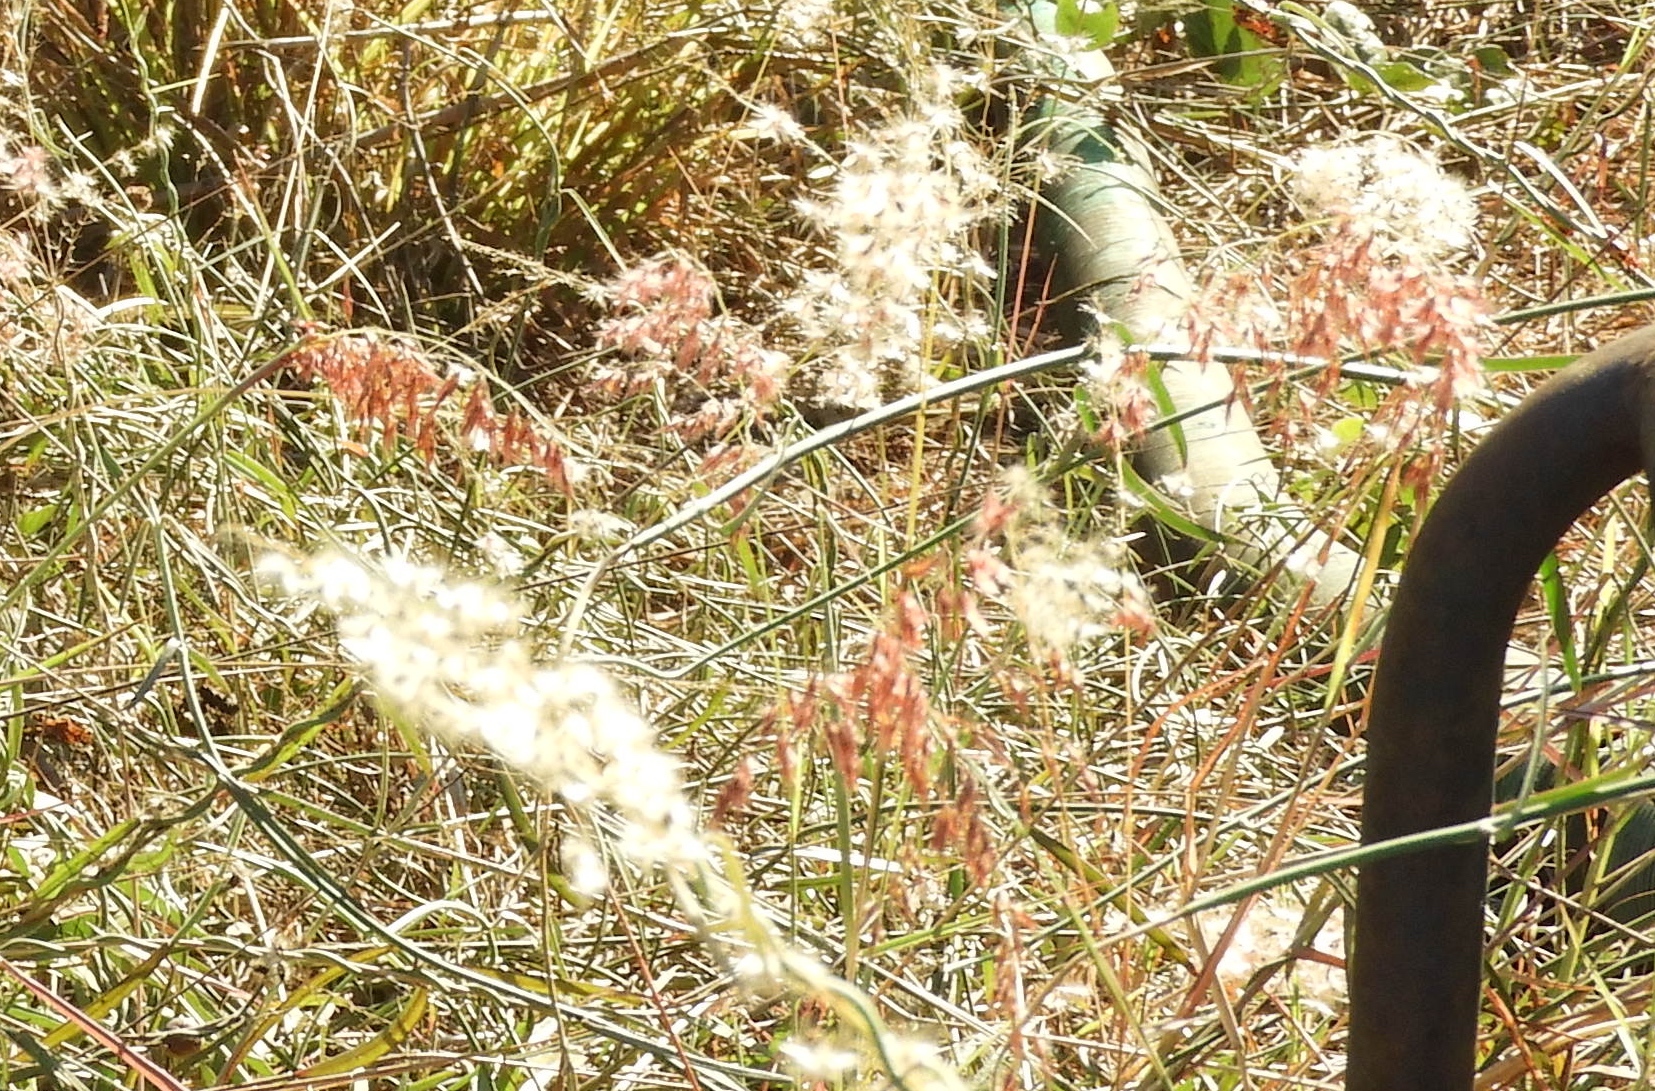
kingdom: Plantae
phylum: Tracheophyta
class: Liliopsida
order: Poales
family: Poaceae
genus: Melinis
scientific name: Melinis repens
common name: Rose natal grass
